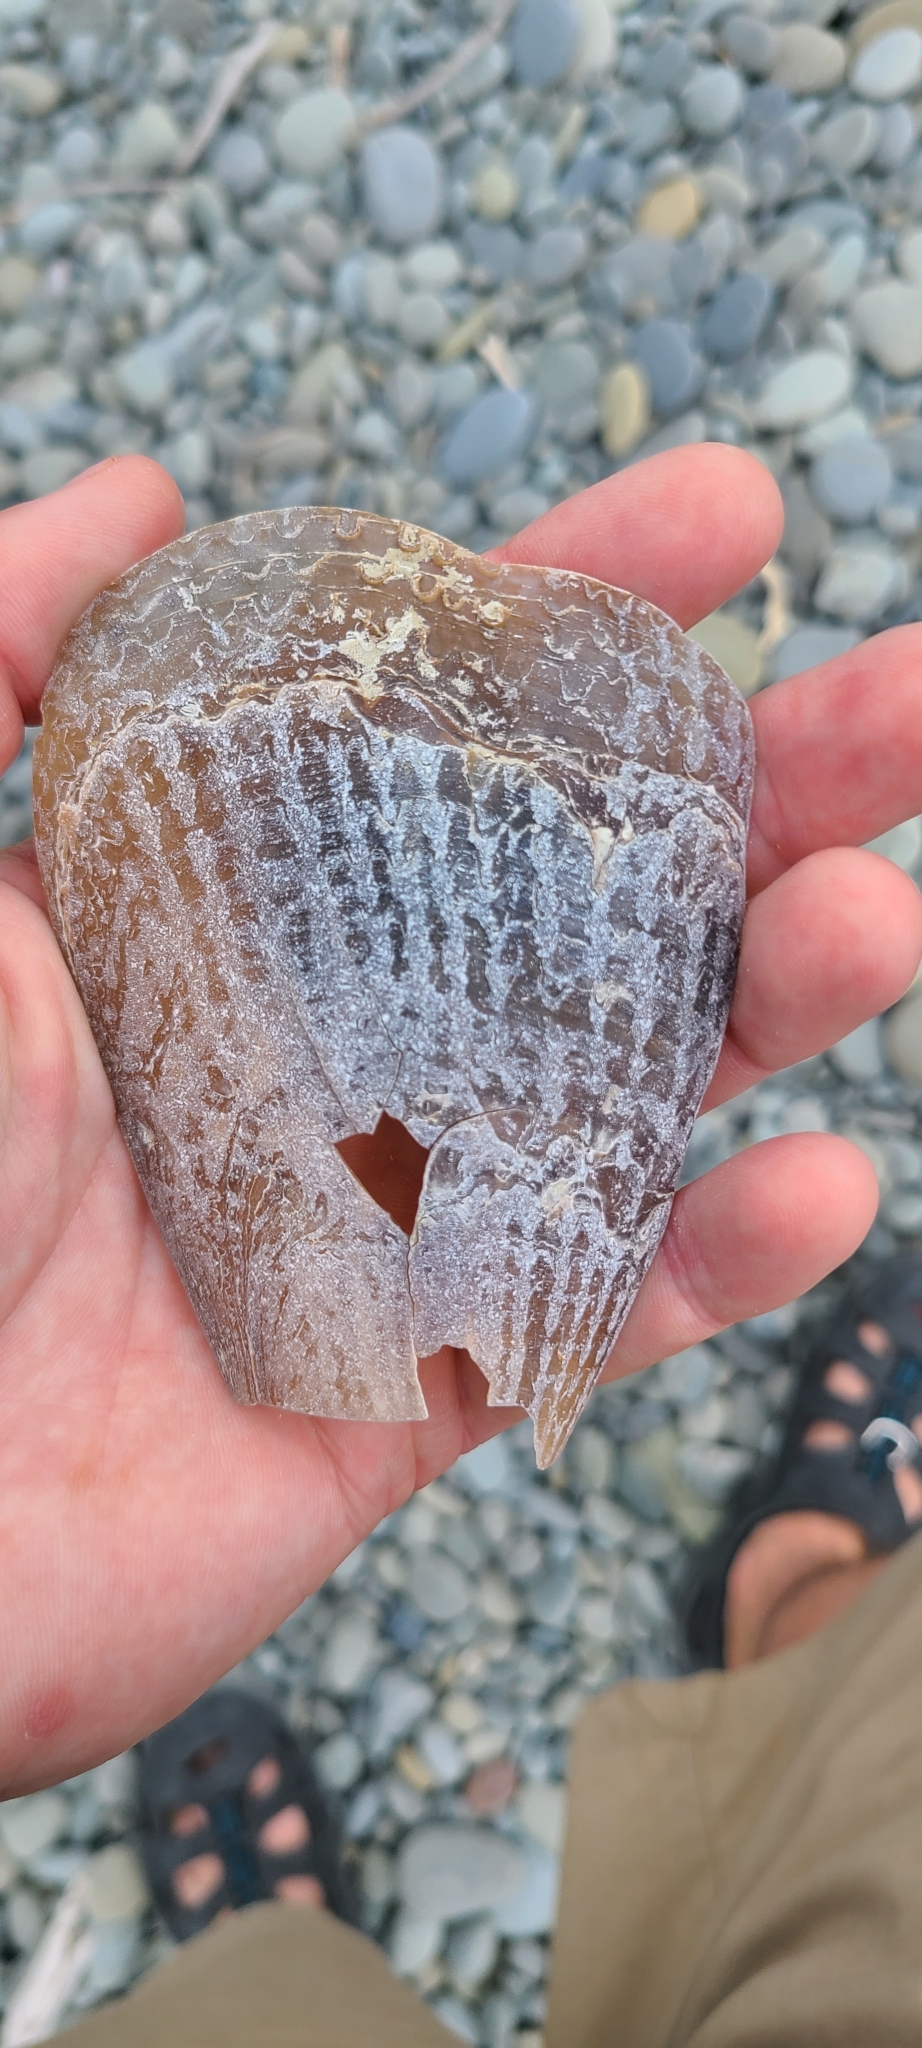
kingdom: Animalia
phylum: Mollusca
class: Bivalvia
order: Ostreida
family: Pinnidae
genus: Atrina
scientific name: Atrina zelandica
